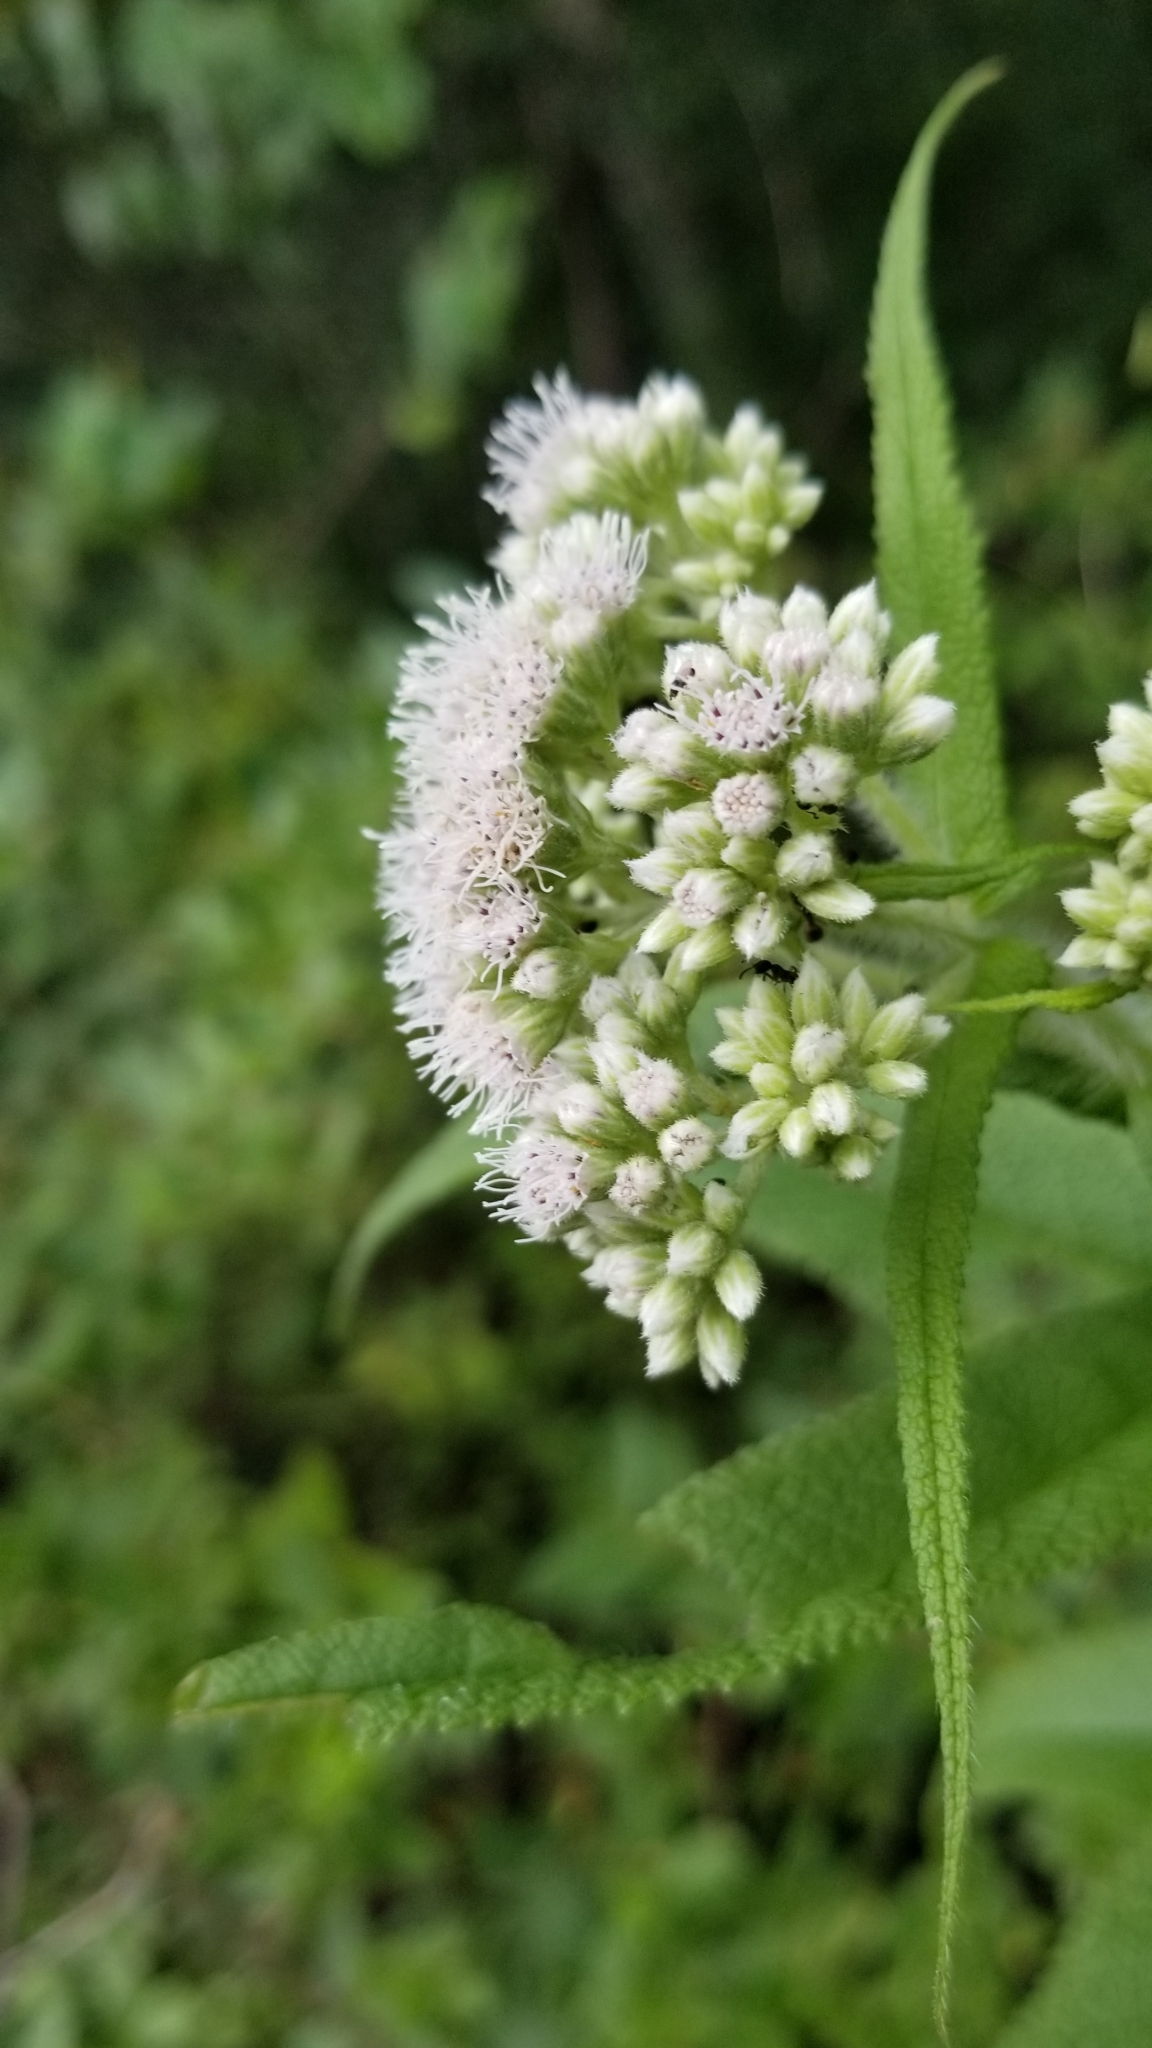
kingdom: Plantae
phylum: Tracheophyta
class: Magnoliopsida
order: Asterales
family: Asteraceae
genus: Eupatorium
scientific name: Eupatorium perfoliatum
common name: Boneset
